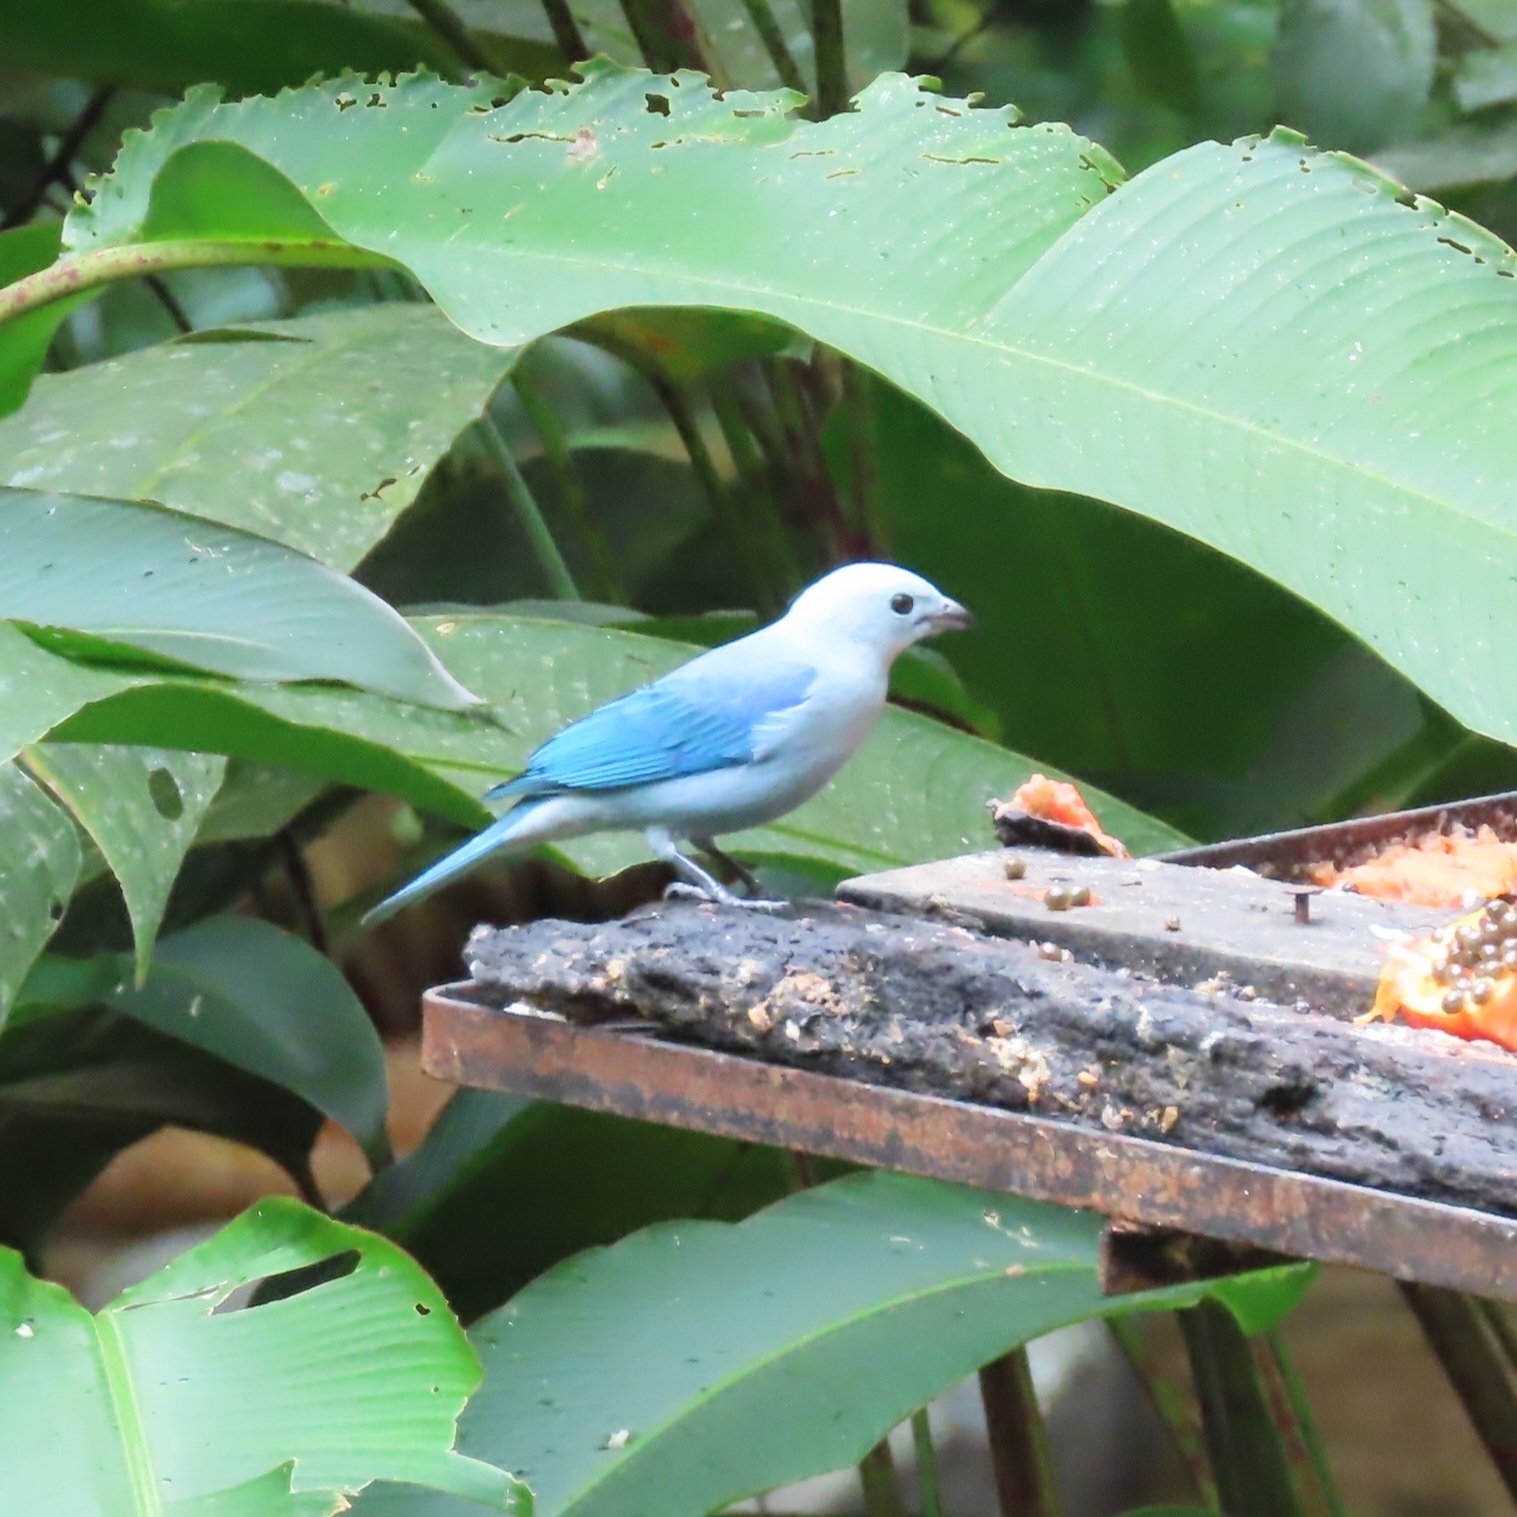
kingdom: Animalia
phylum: Chordata
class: Aves
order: Passeriformes
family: Thraupidae
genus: Thraupis
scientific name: Thraupis episcopus
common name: Blue-grey tanager
